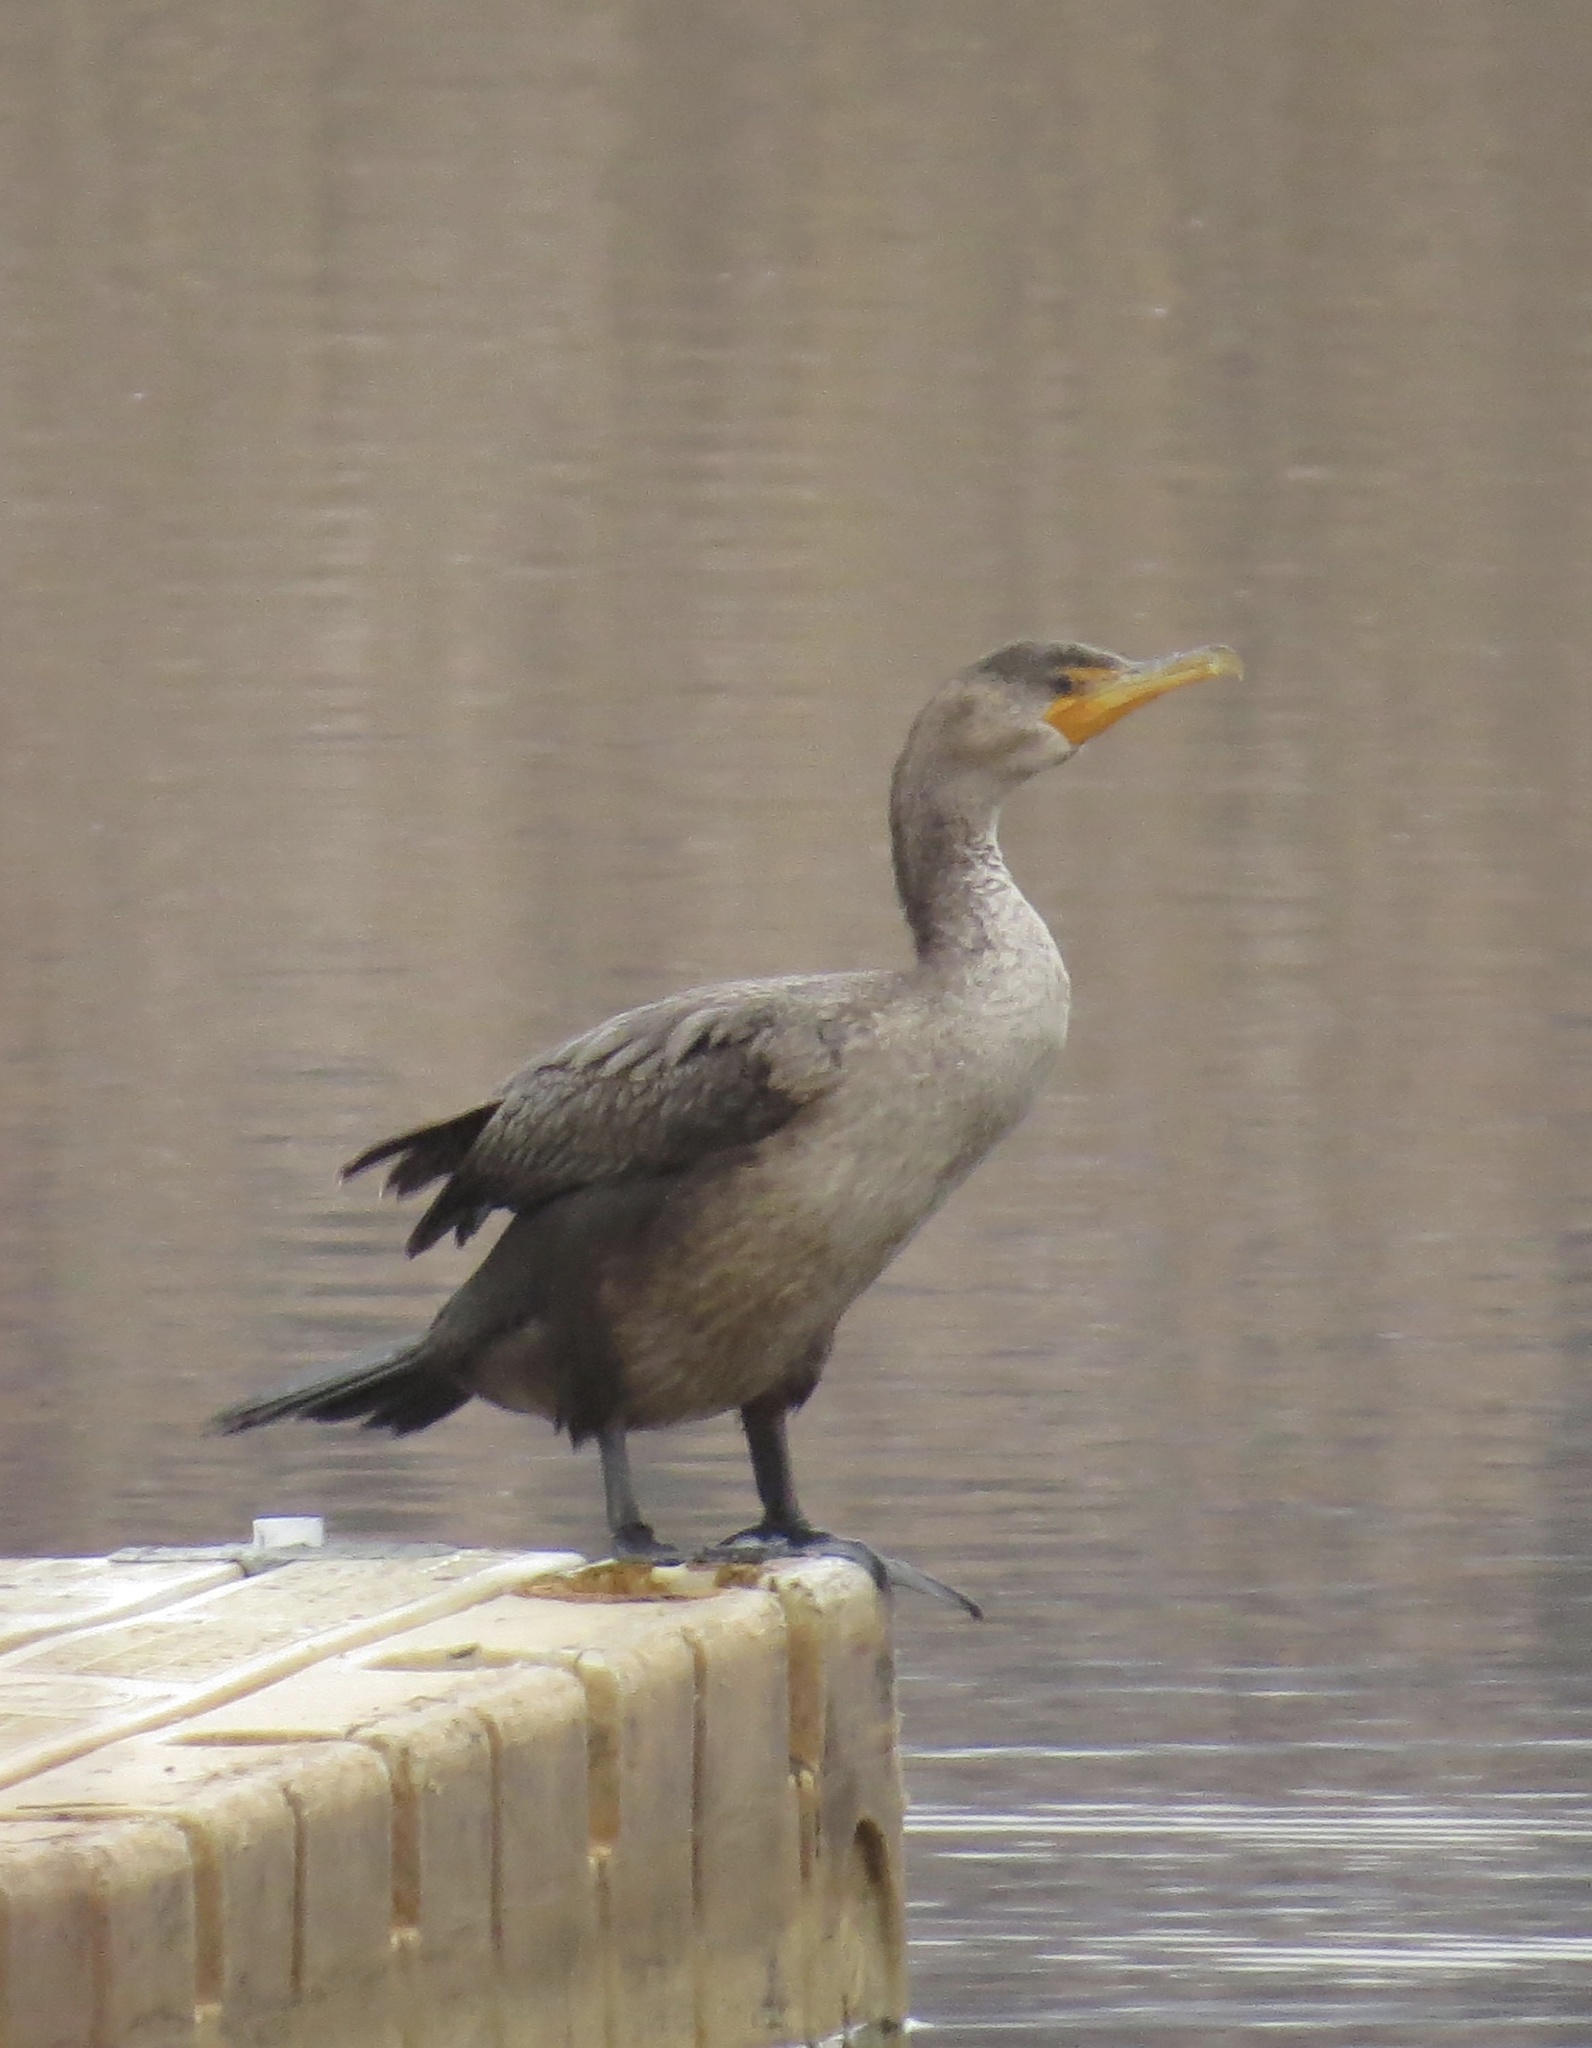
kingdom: Animalia
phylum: Chordata
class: Aves
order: Suliformes
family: Phalacrocoracidae
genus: Phalacrocorax
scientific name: Phalacrocorax auritus
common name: Double-crested cormorant
